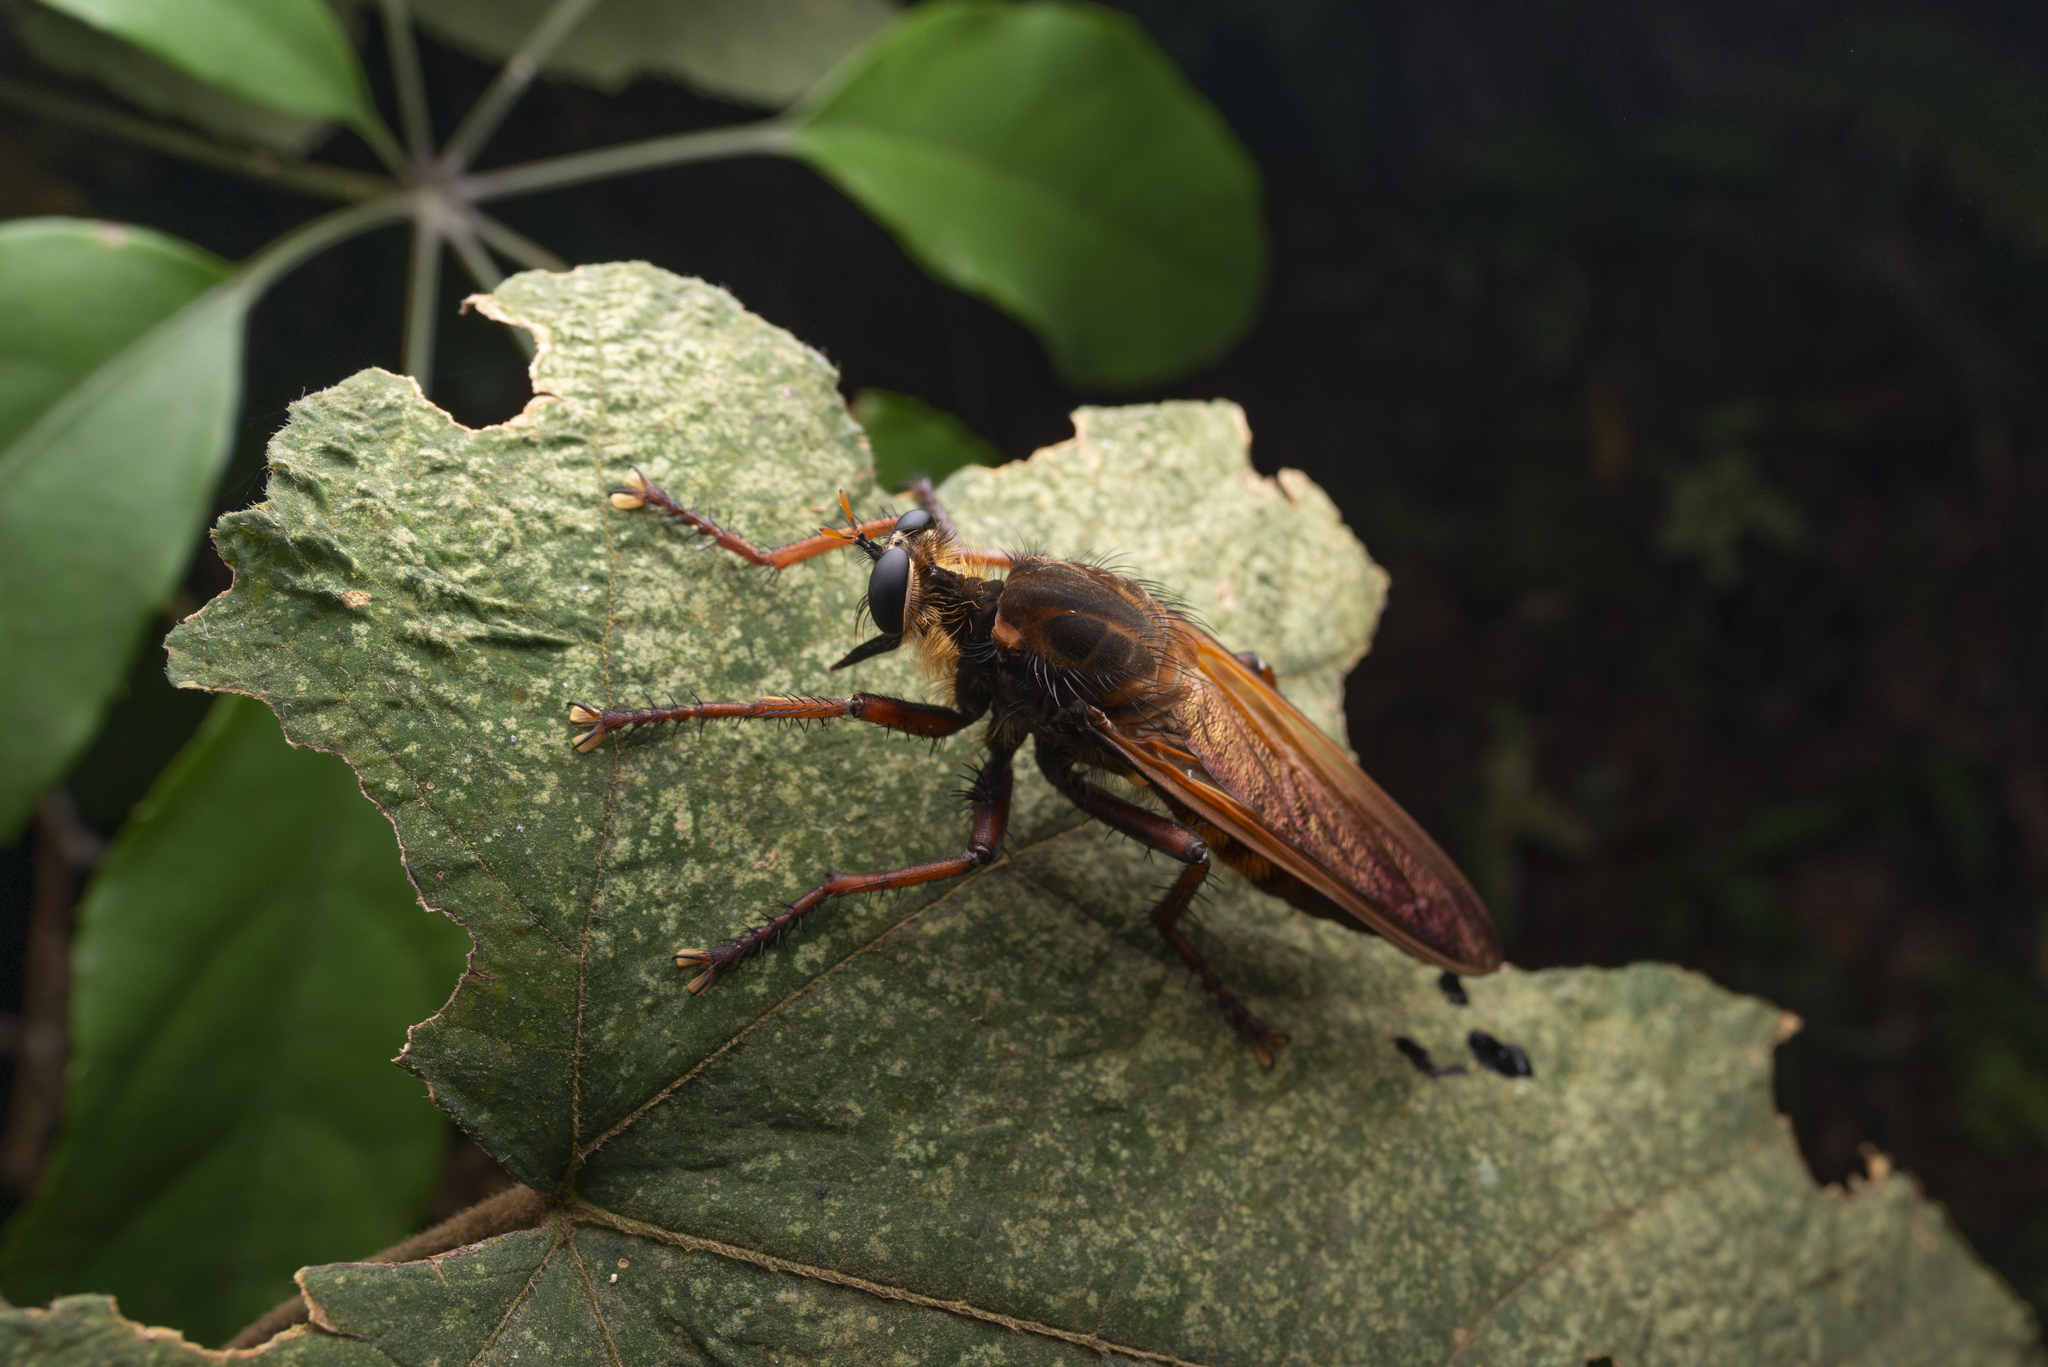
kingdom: Animalia
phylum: Arthropoda
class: Insecta
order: Diptera
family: Asilidae
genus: Microstylum
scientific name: Microstylum dux
